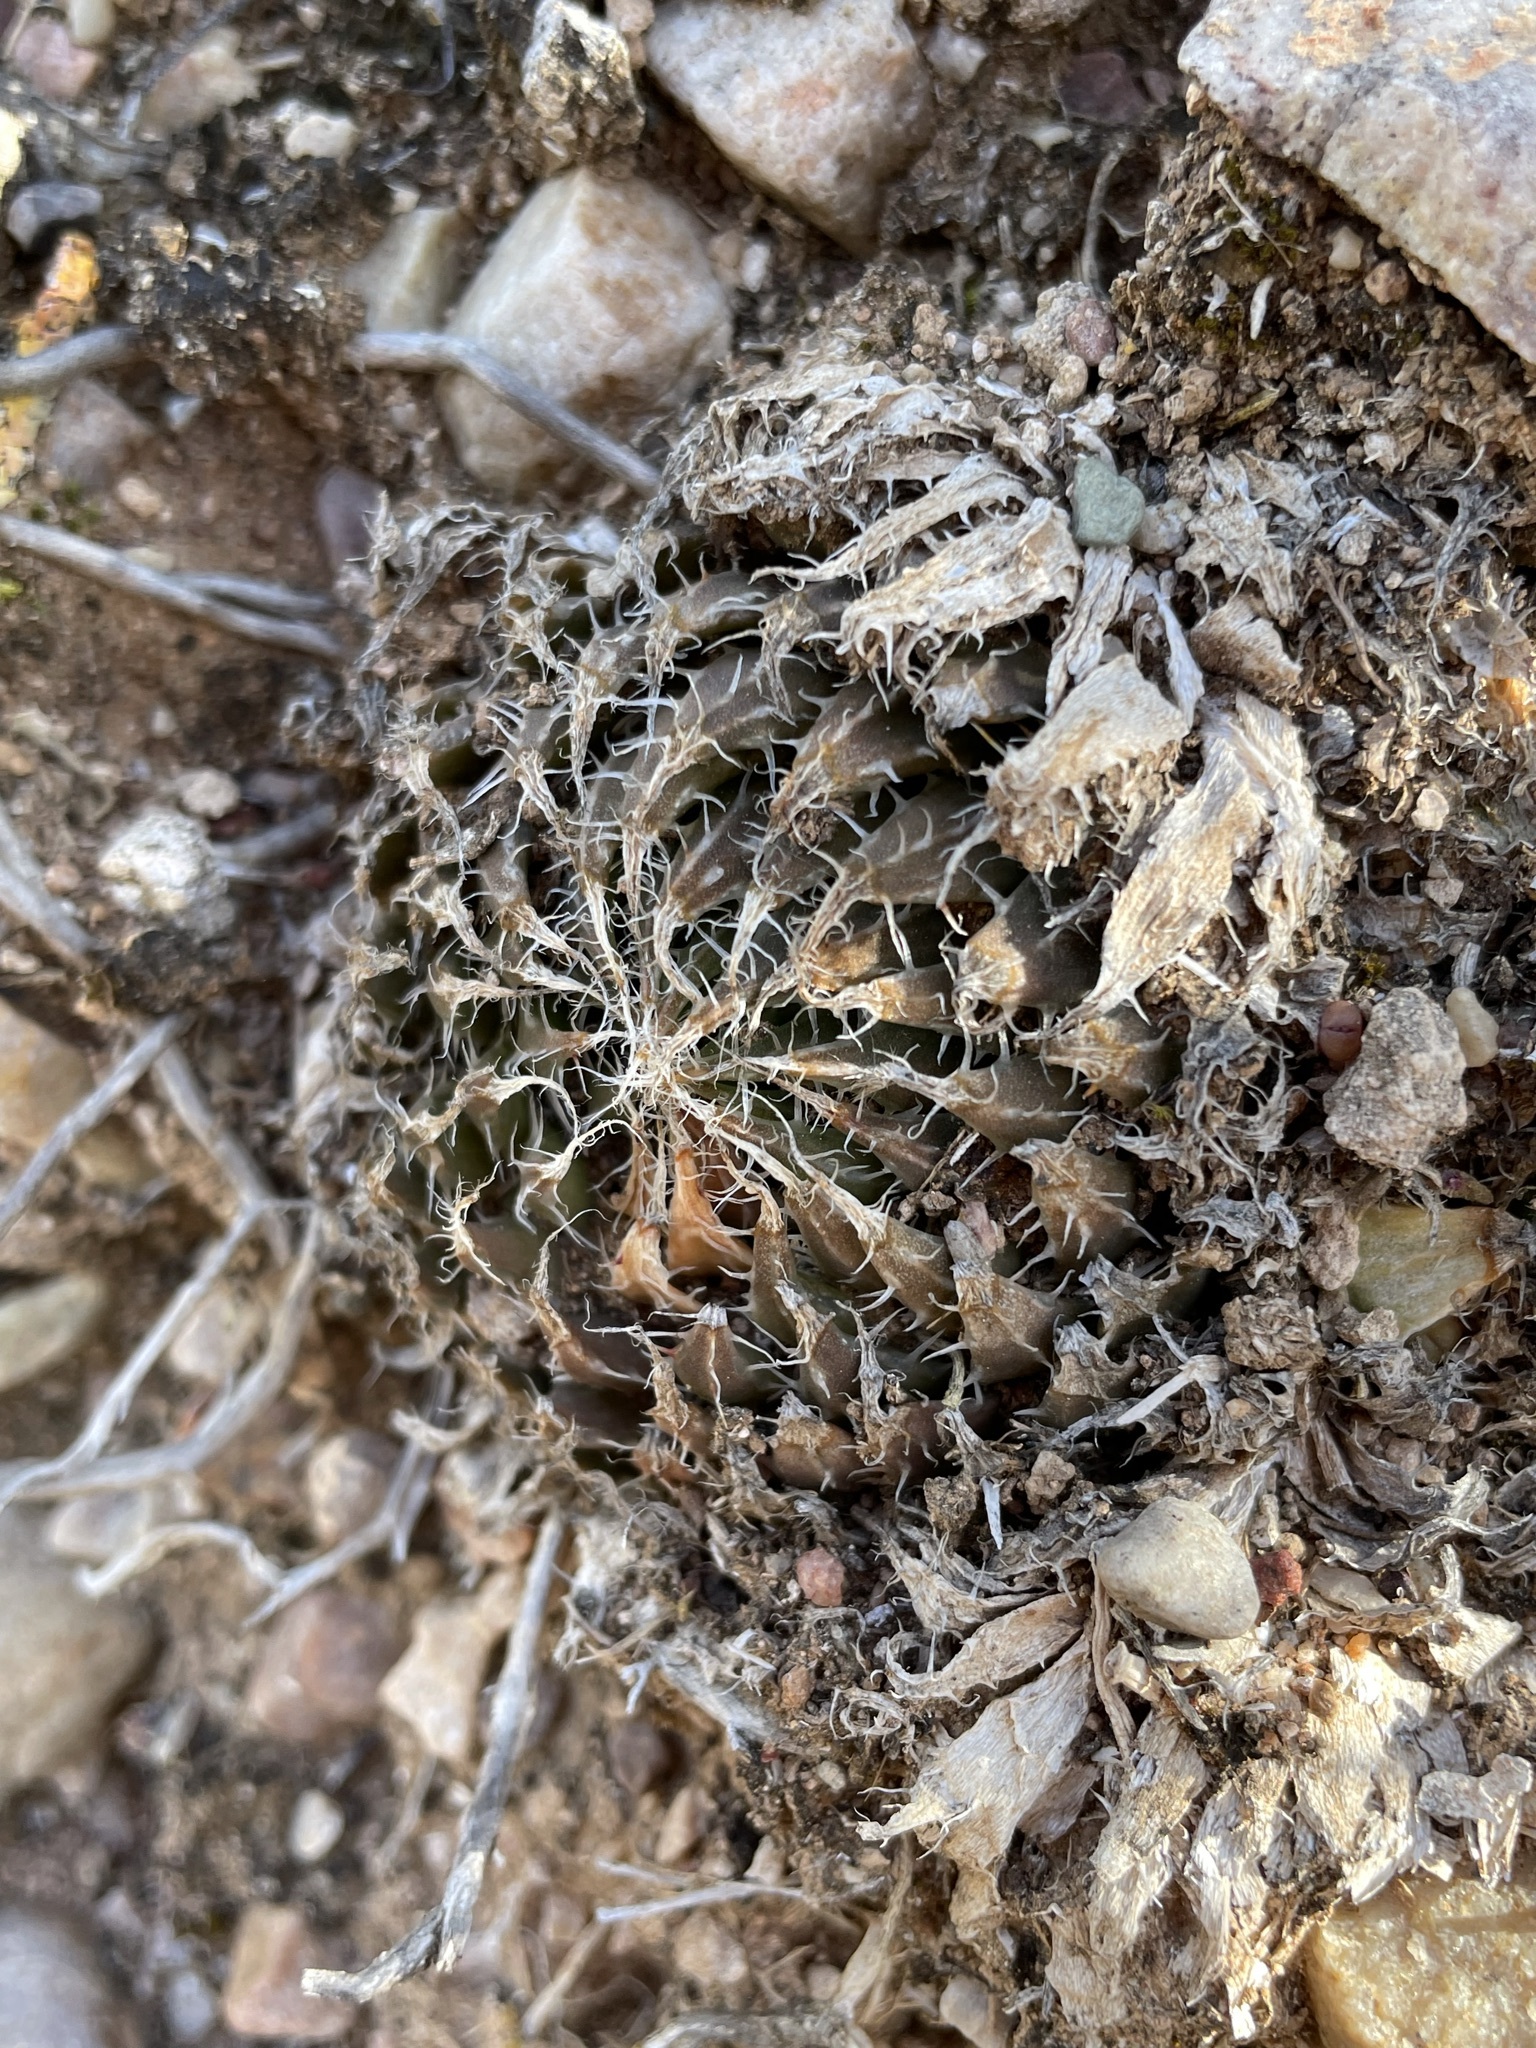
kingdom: Plantae
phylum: Tracheophyta
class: Liliopsida
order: Asparagales
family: Asphodelaceae
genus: Haworthia
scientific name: Haworthia arachnoidea
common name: Cobweb-aloe
